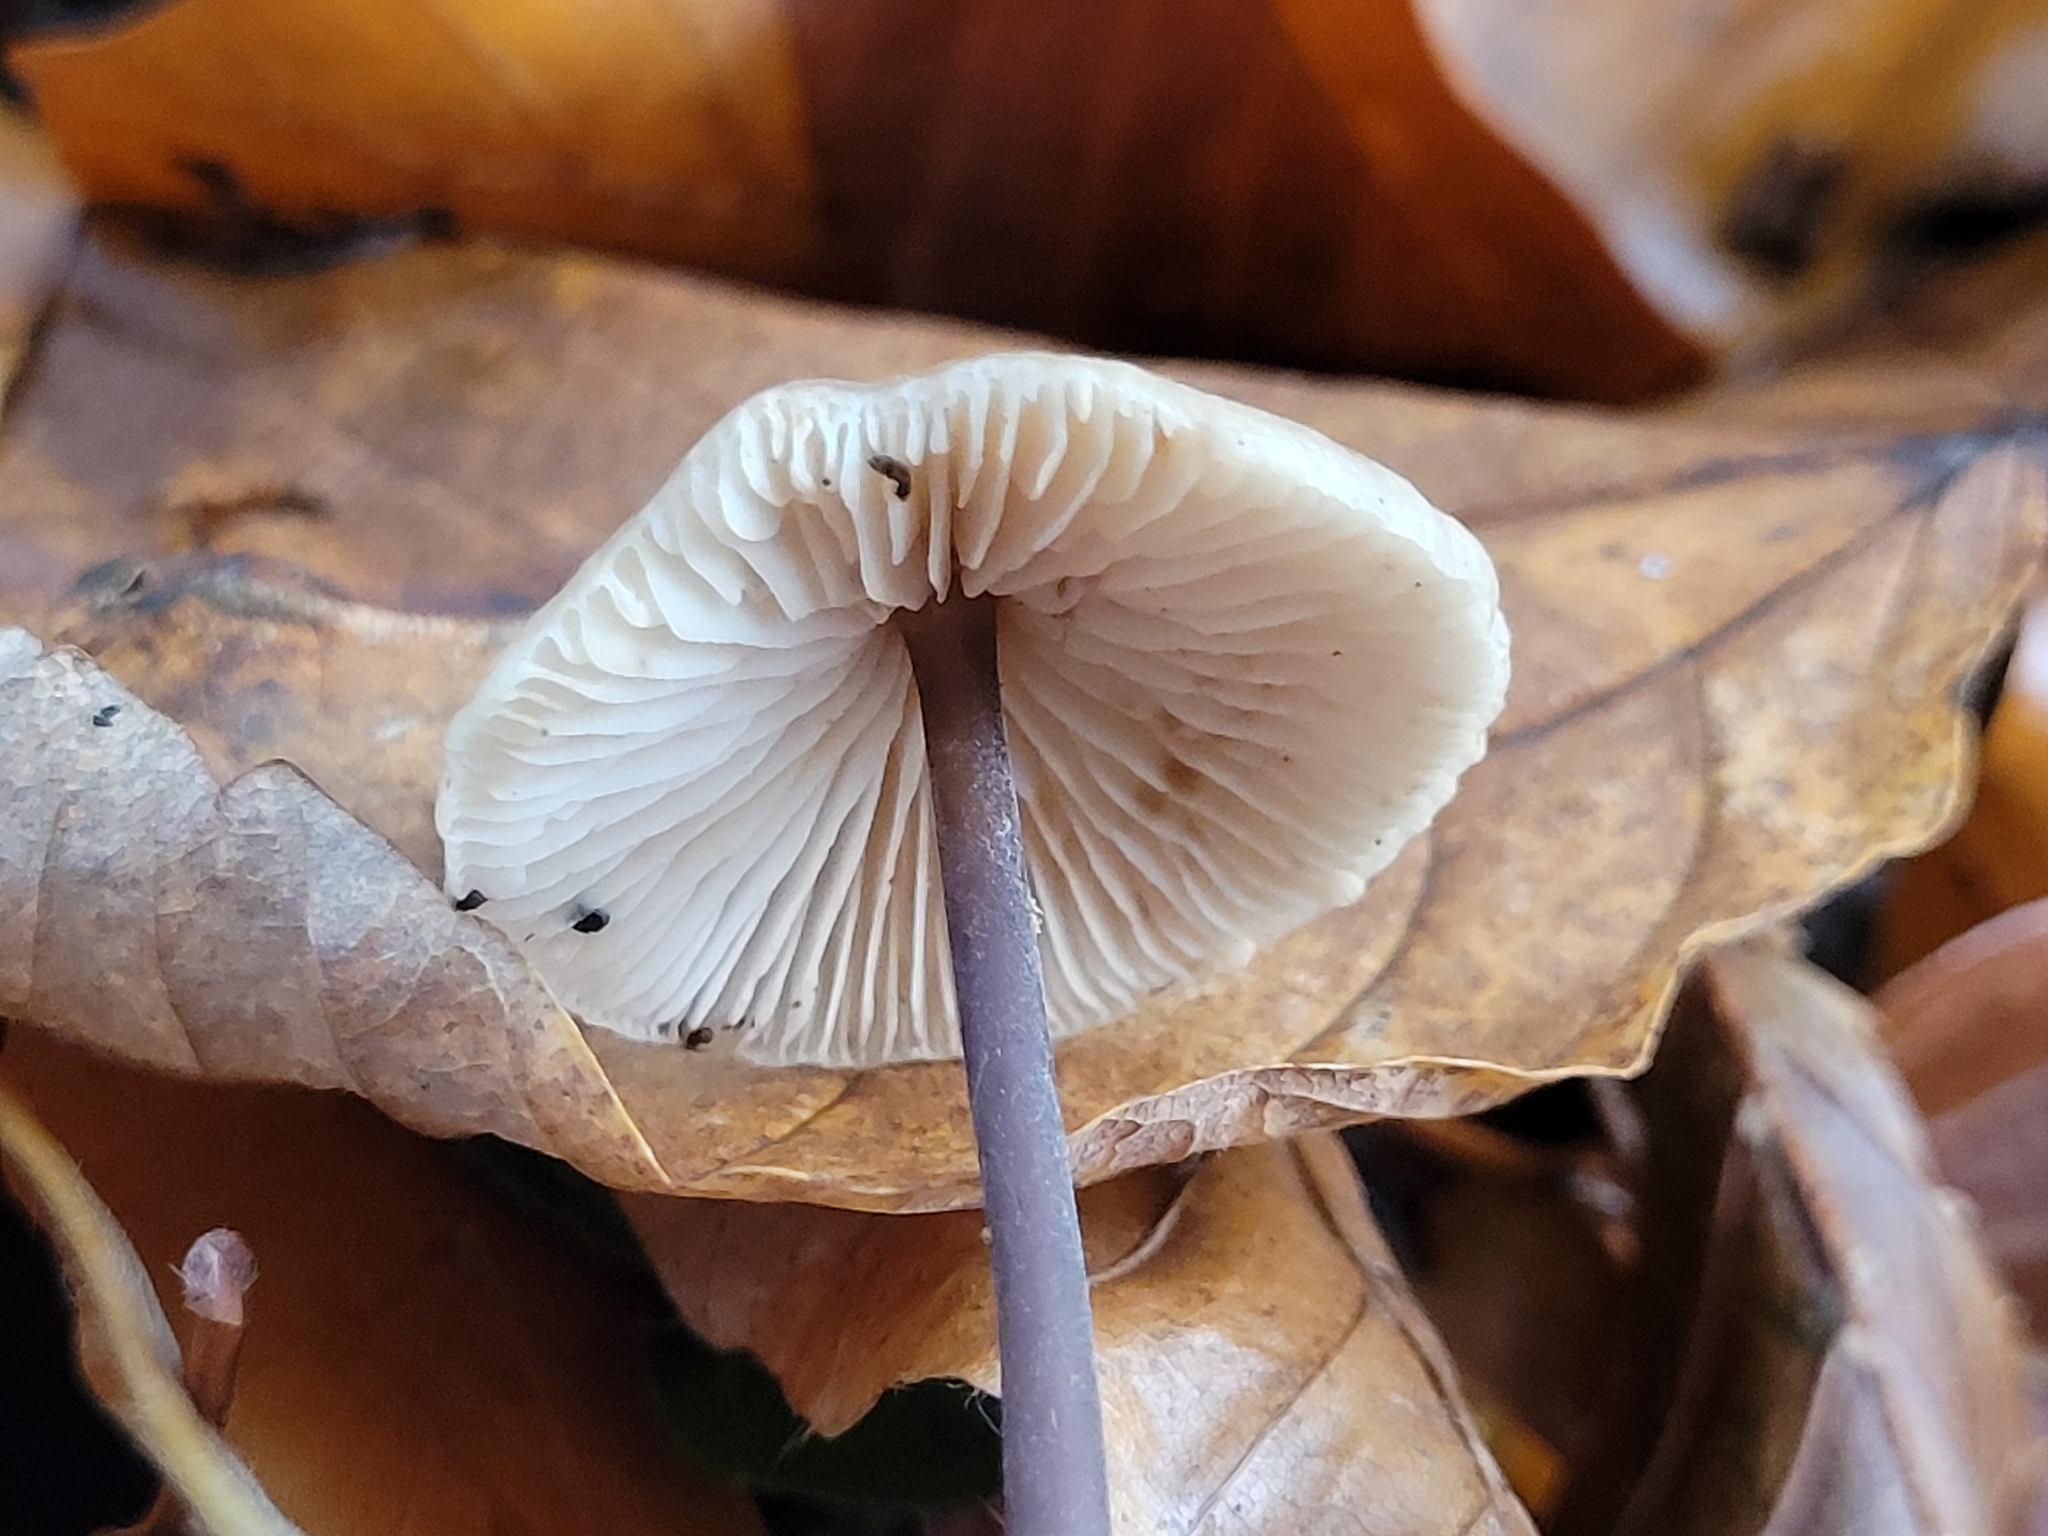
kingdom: Fungi
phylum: Basidiomycota
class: Agaricomycetes
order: Agaricales
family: Omphalotaceae
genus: Mycetinis
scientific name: Mycetinis alliaceus
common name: Garlic parachute
